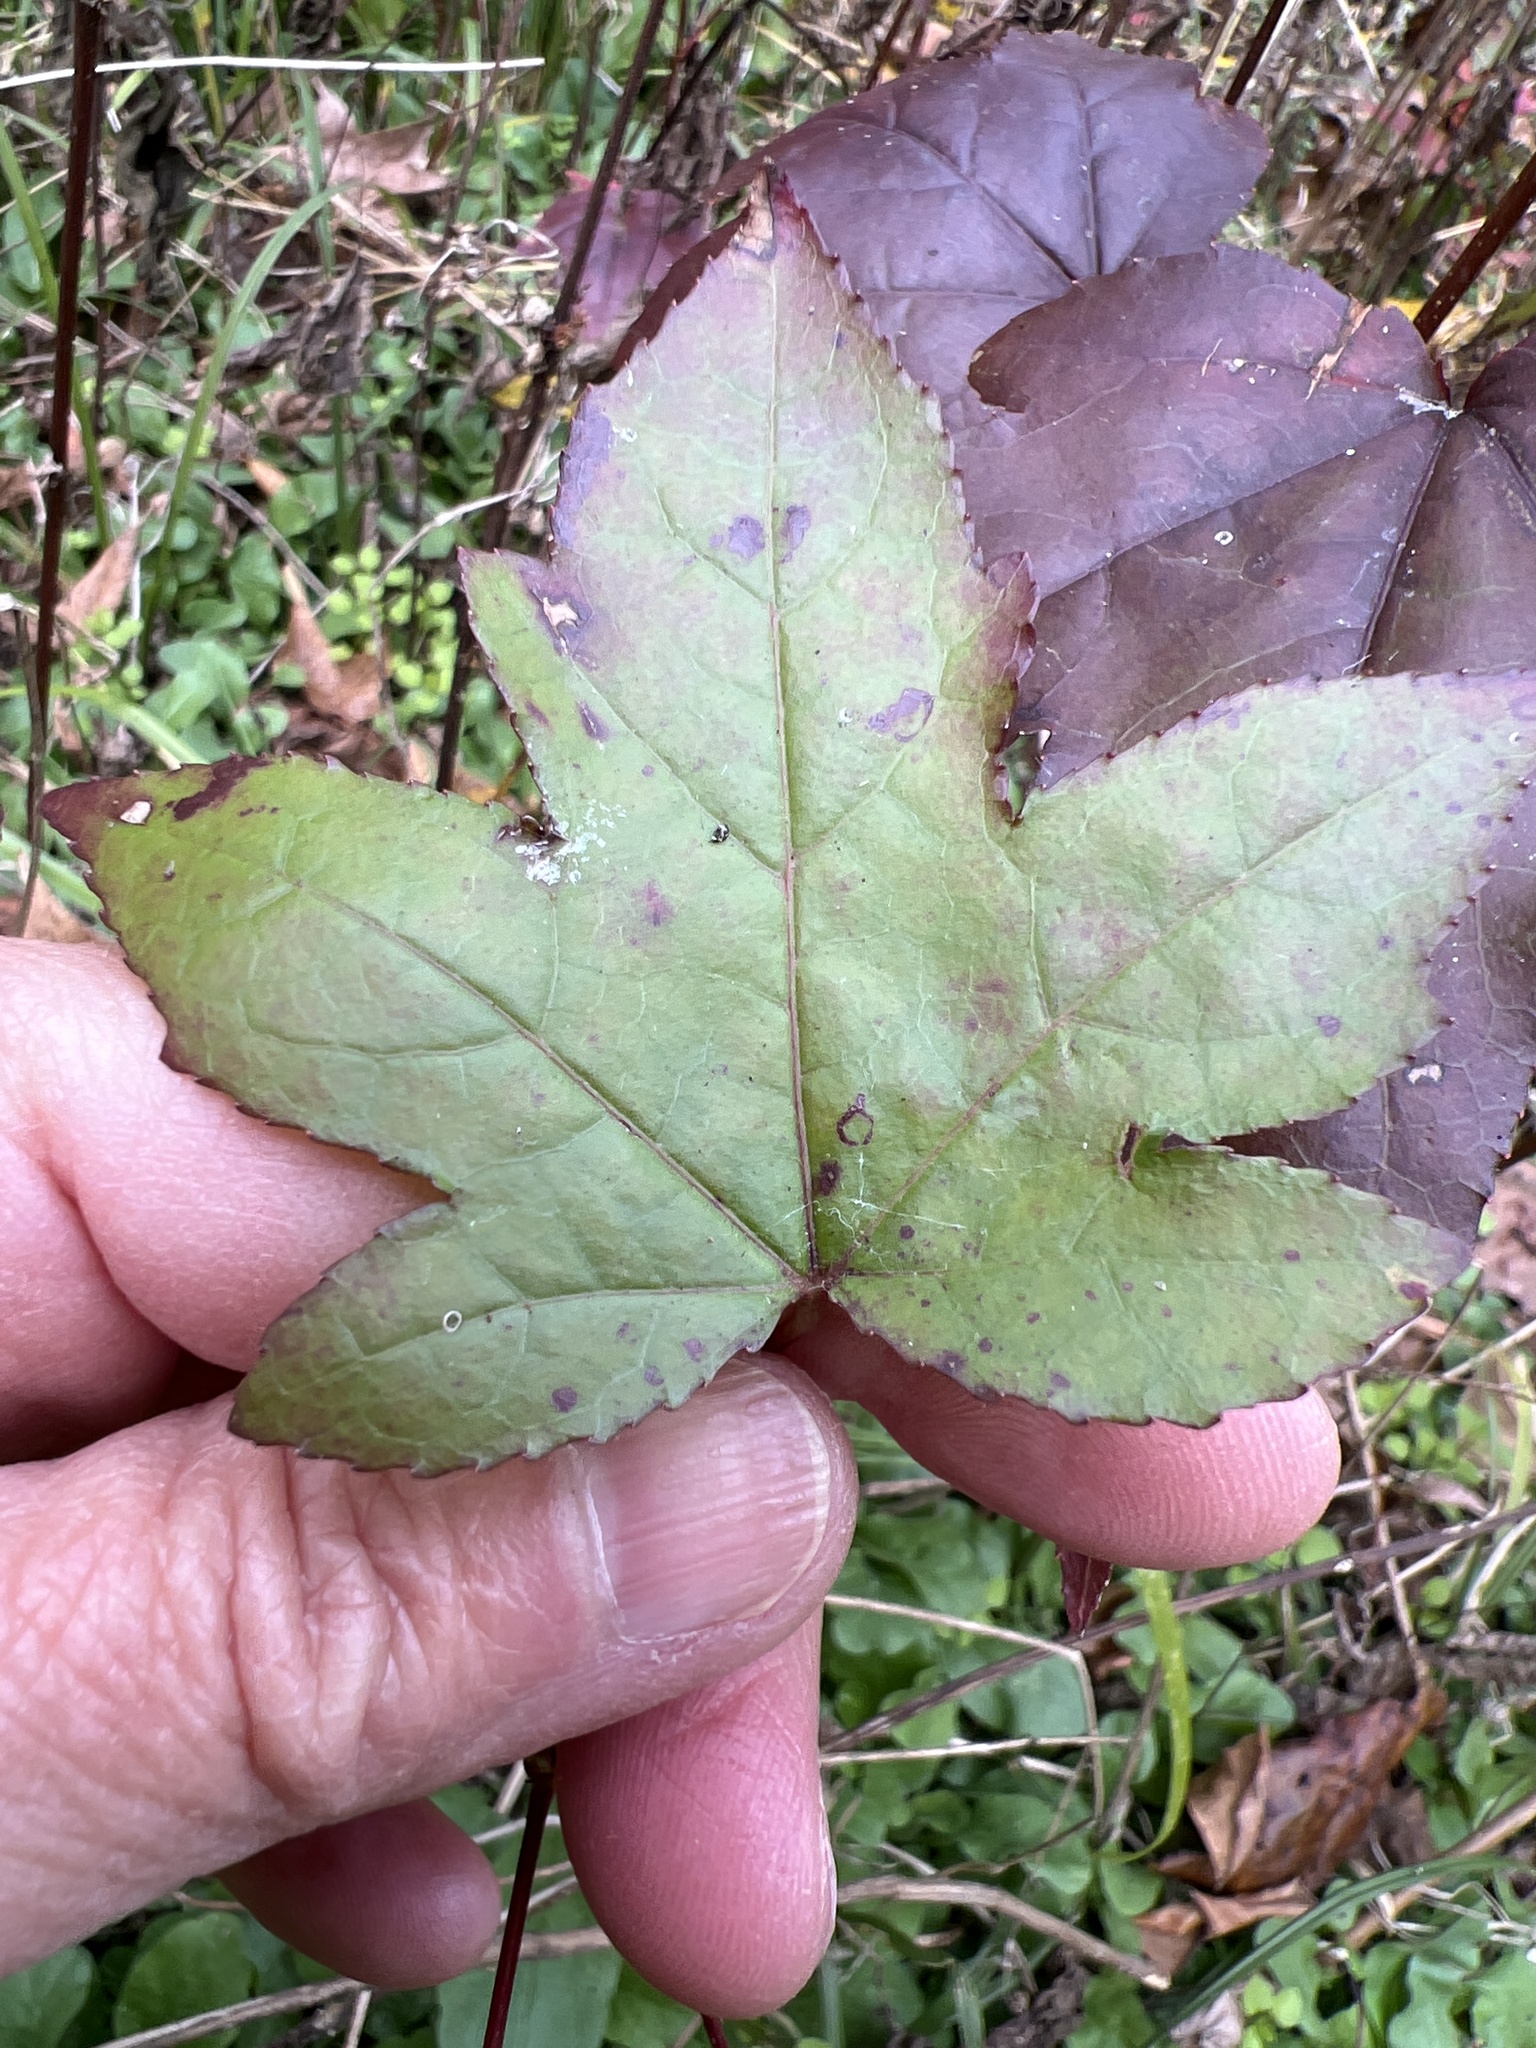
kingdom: Plantae
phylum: Tracheophyta
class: Magnoliopsida
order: Saxifragales
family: Altingiaceae
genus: Liquidambar
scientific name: Liquidambar styraciflua
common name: Sweet gum
